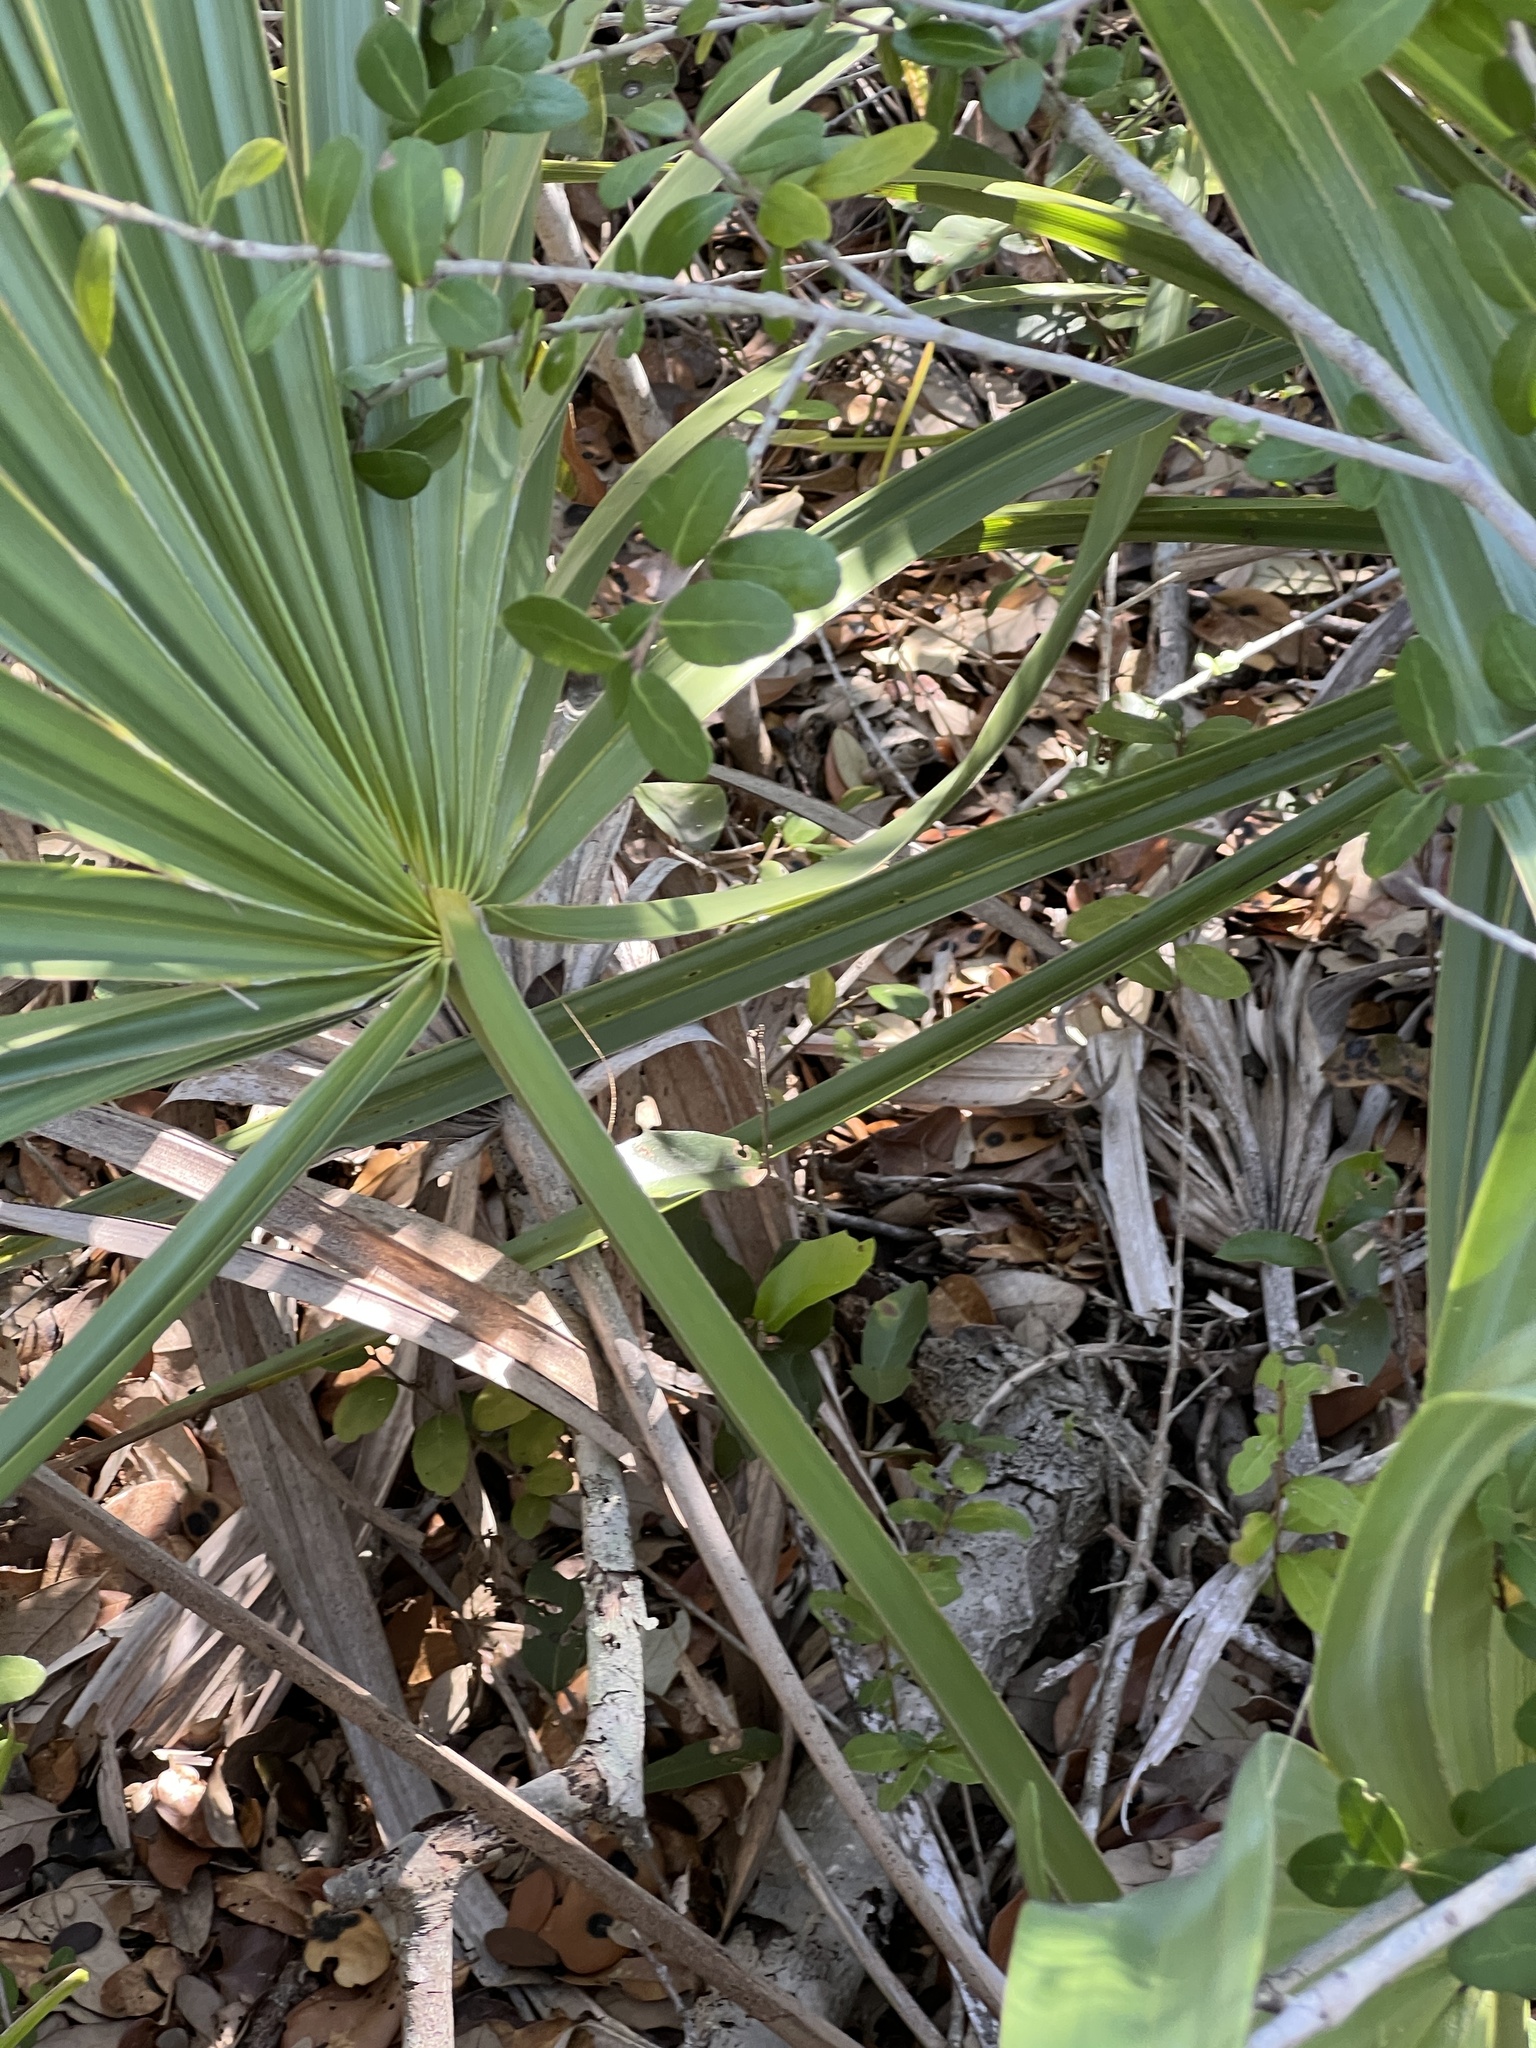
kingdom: Plantae
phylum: Tracheophyta
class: Liliopsida
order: Arecales
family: Arecaceae
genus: Sabal
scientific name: Sabal minor
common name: Dwarf palmetto
